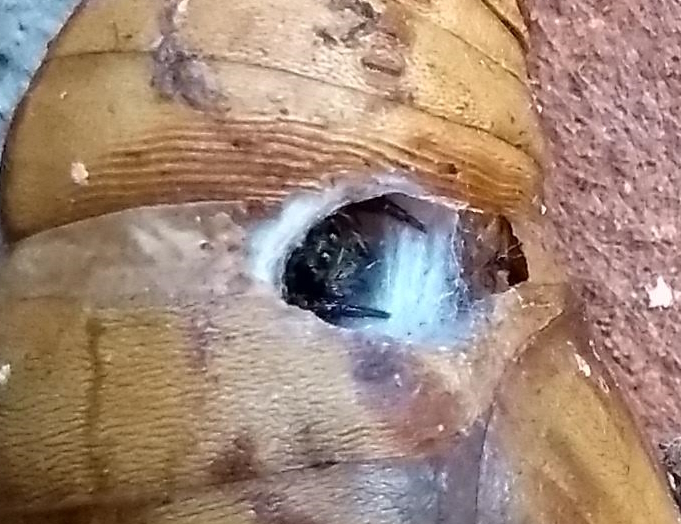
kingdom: Animalia
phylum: Arthropoda
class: Arachnida
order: Araneae
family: Salticidae
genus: Corythalia
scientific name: Corythalia conferta
